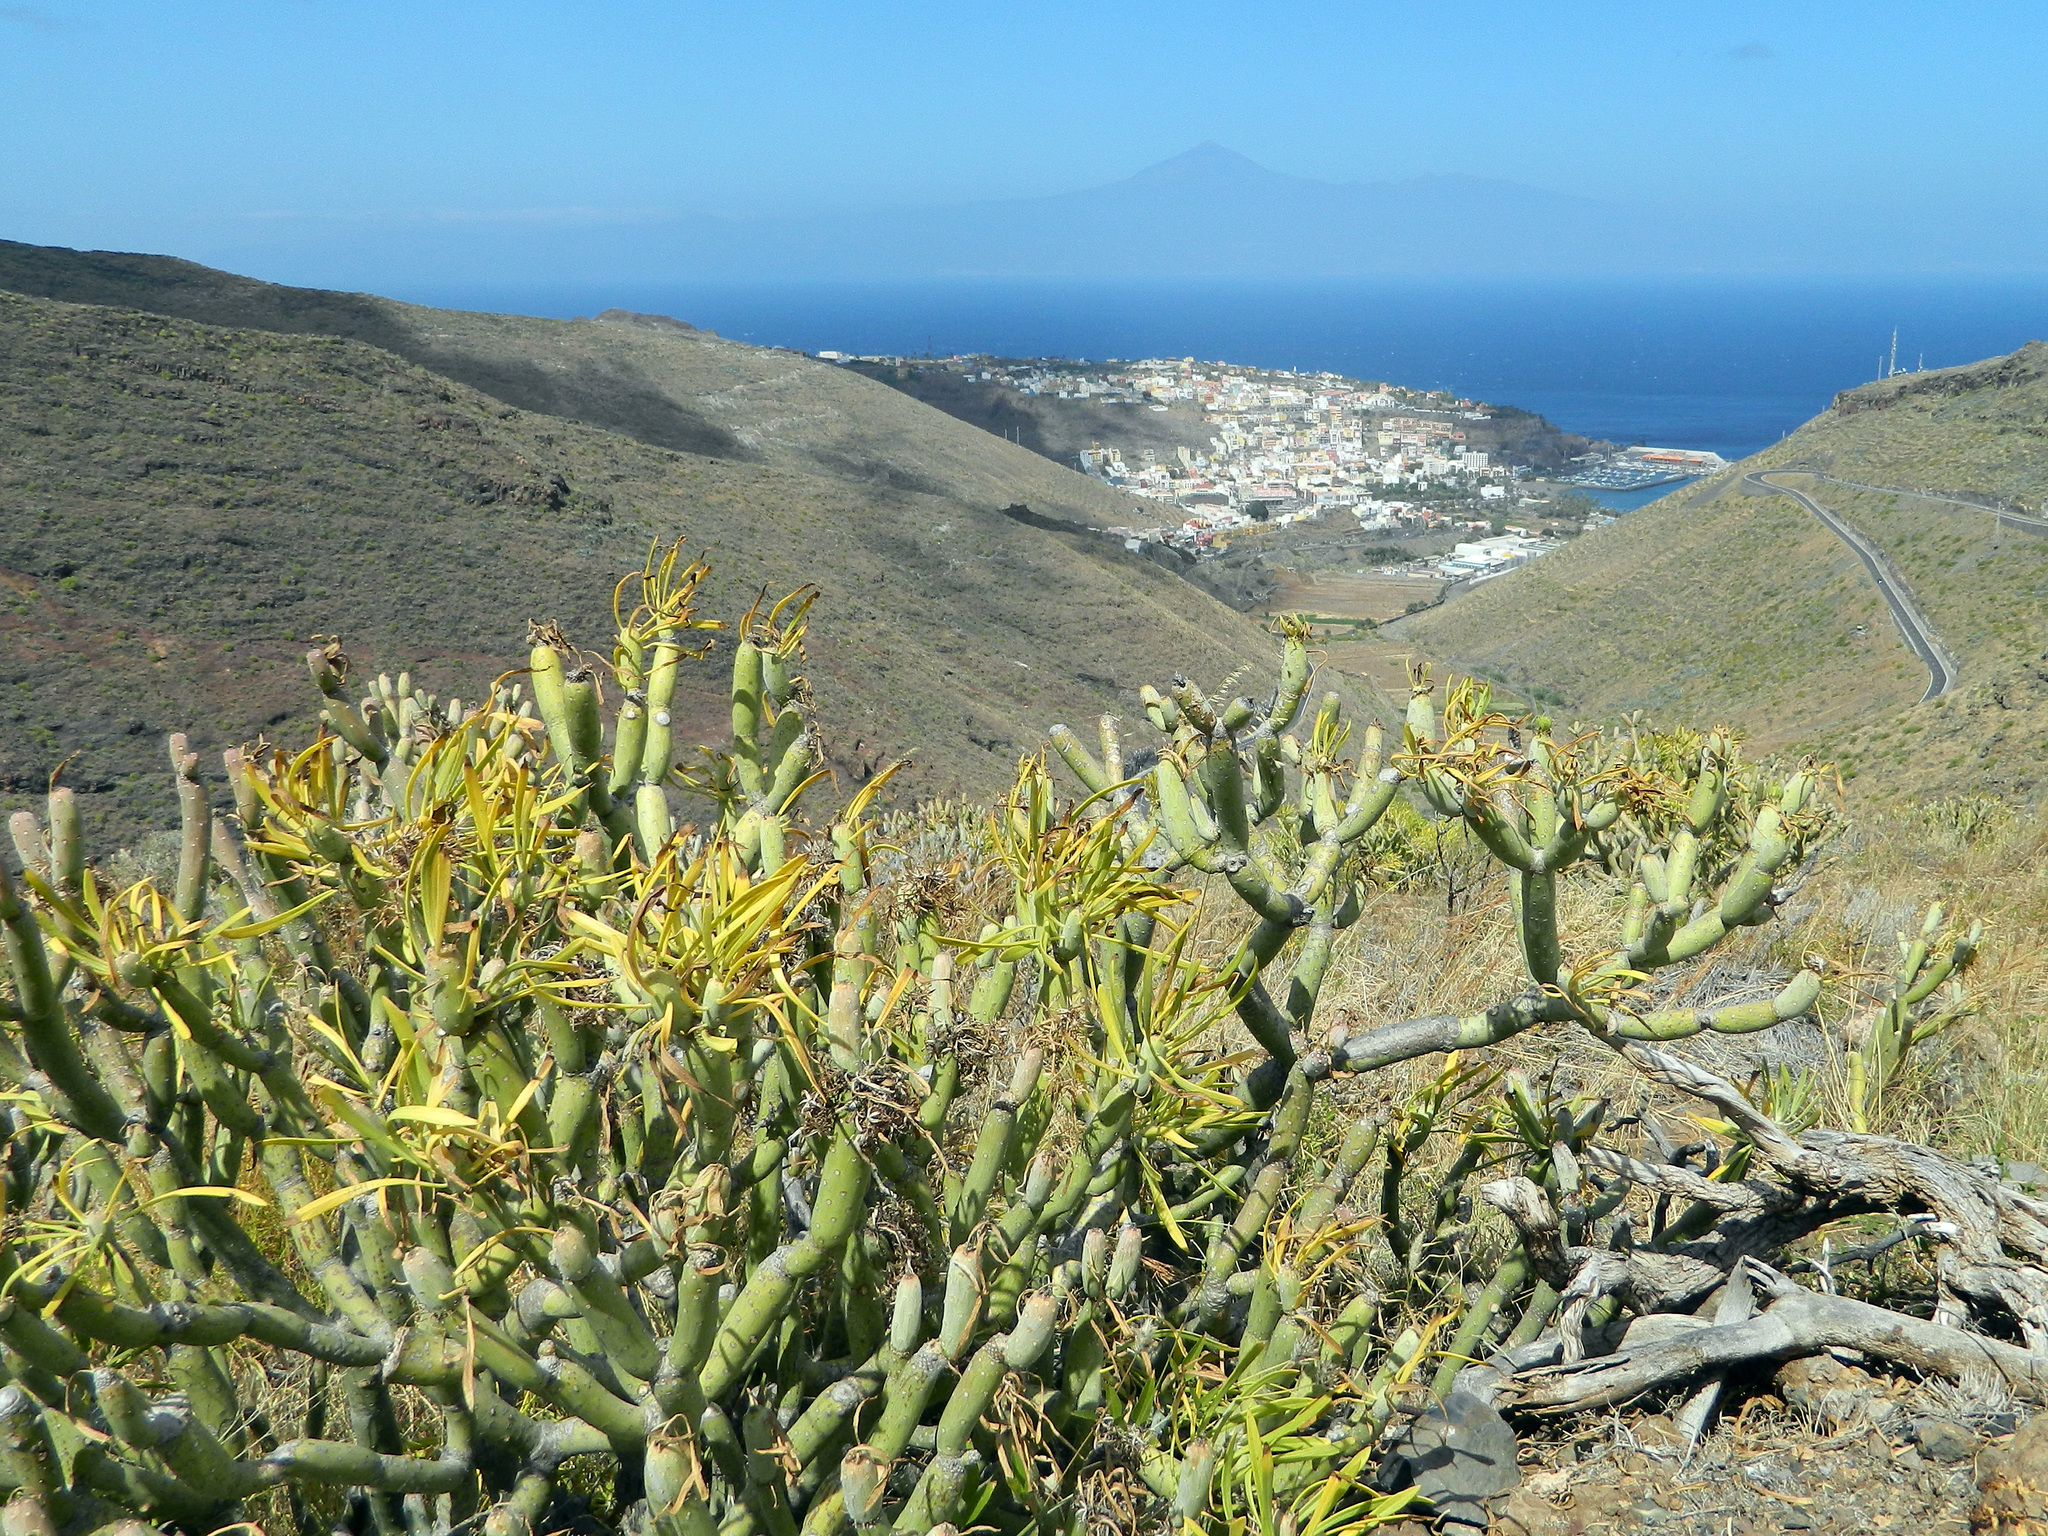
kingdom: Plantae
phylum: Tracheophyta
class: Magnoliopsida
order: Asterales
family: Asteraceae
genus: Kleinia
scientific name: Kleinia neriifolia
